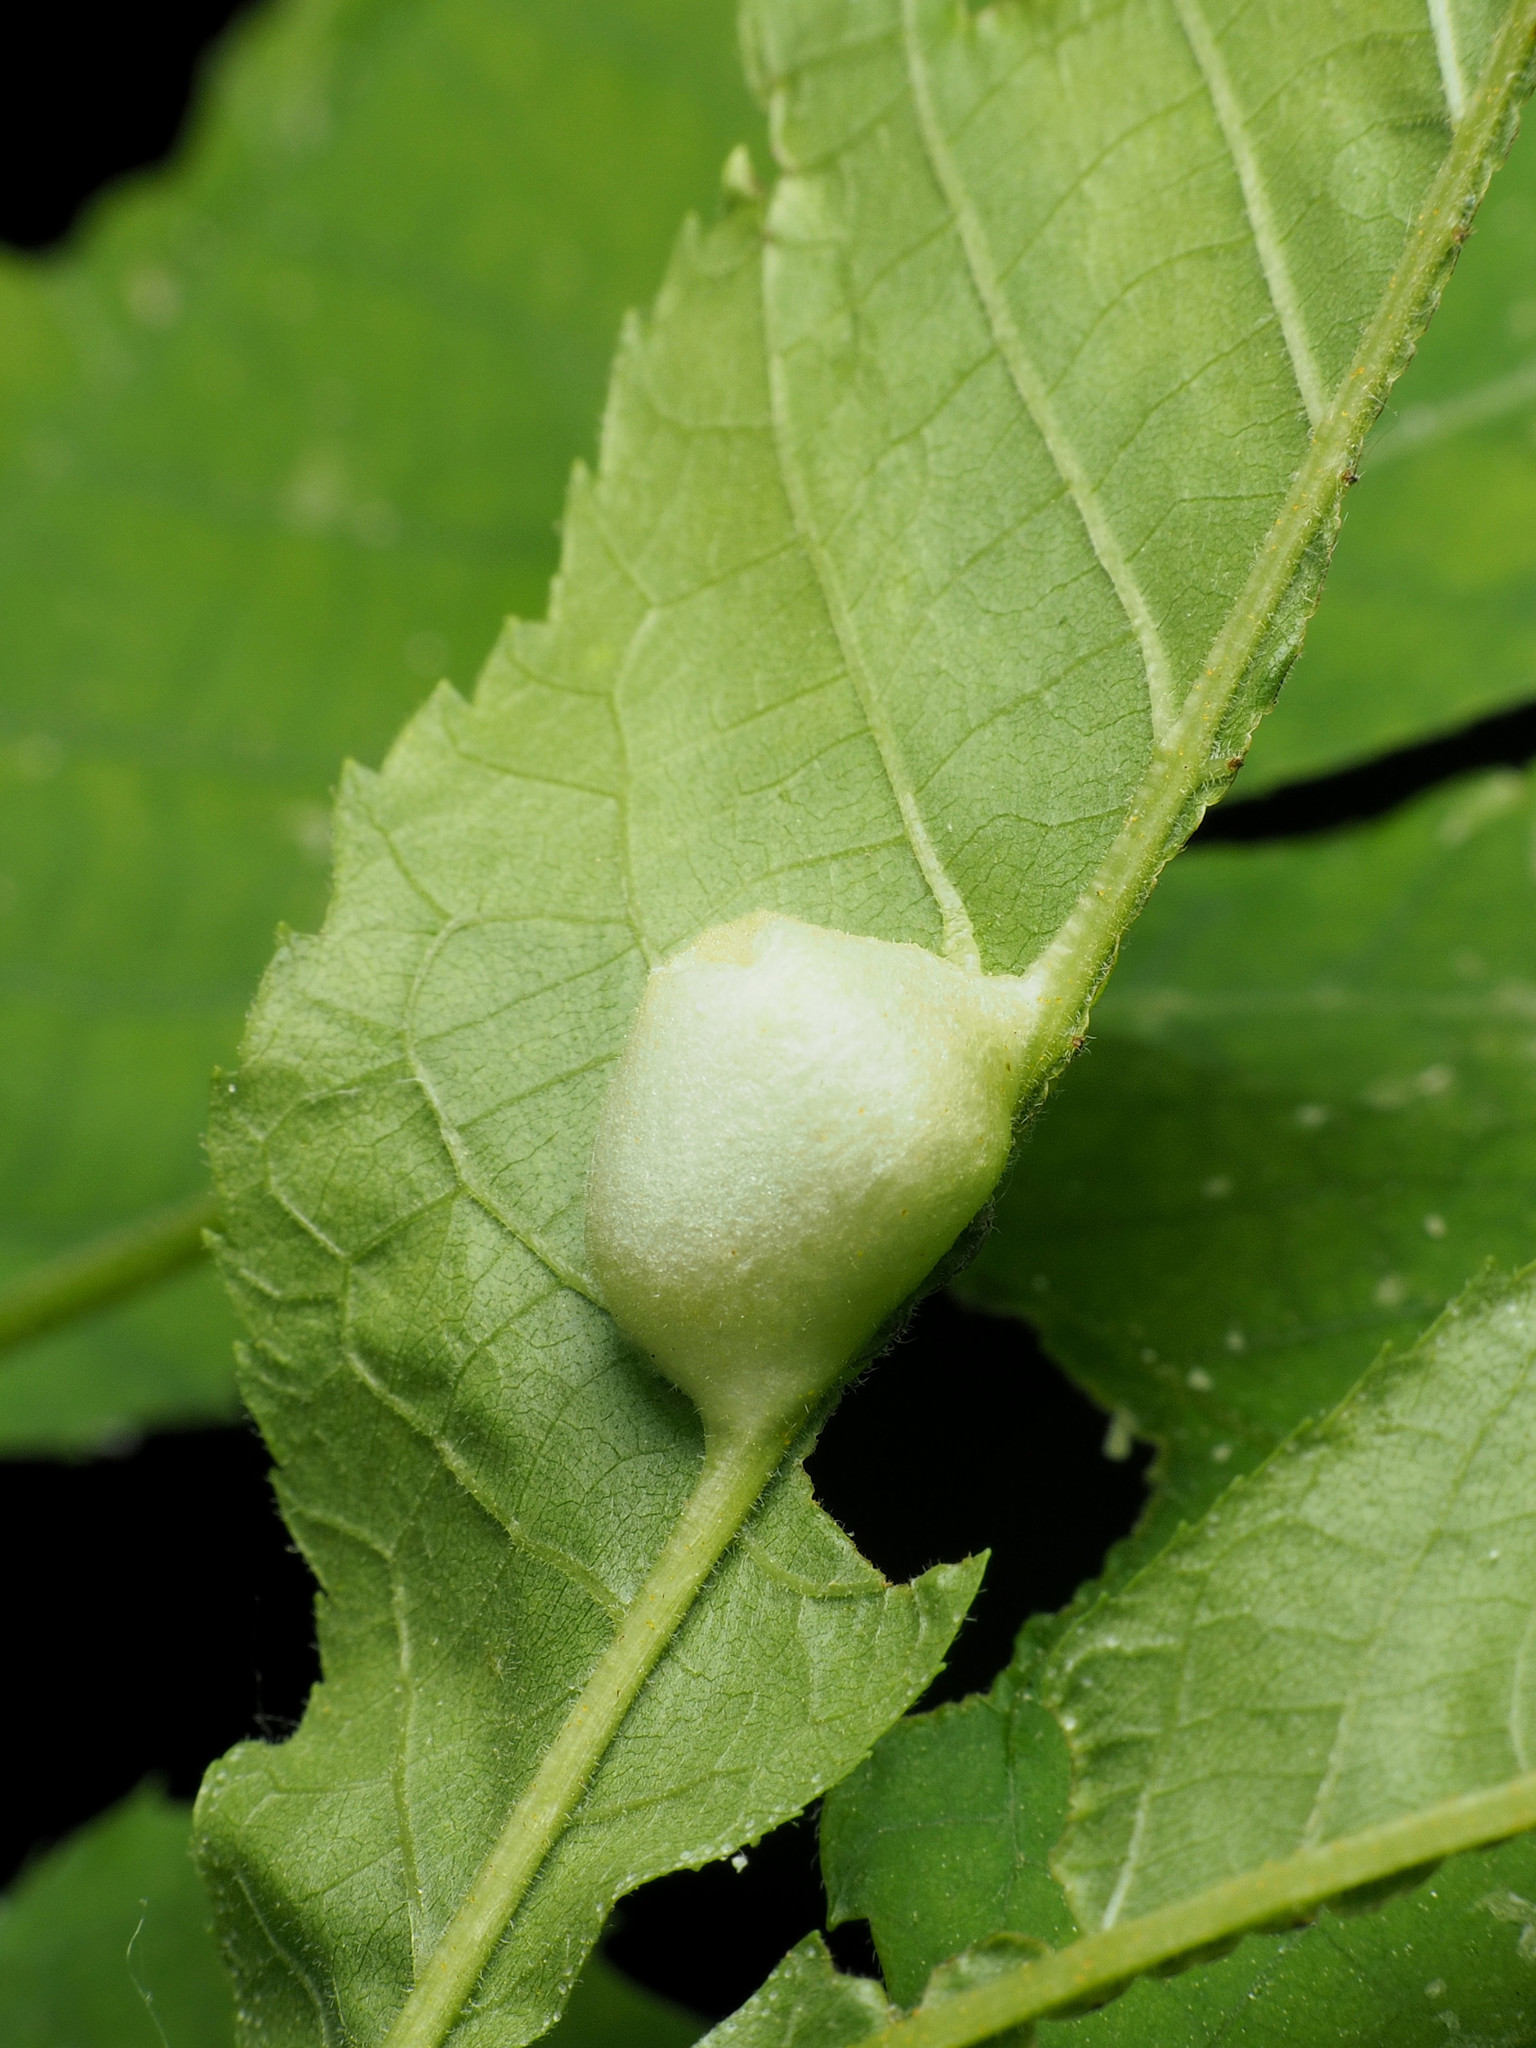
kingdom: Animalia
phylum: Arthropoda
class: Insecta
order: Hemiptera
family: Phylloxeridae
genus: Phylloxera
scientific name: Phylloxera
